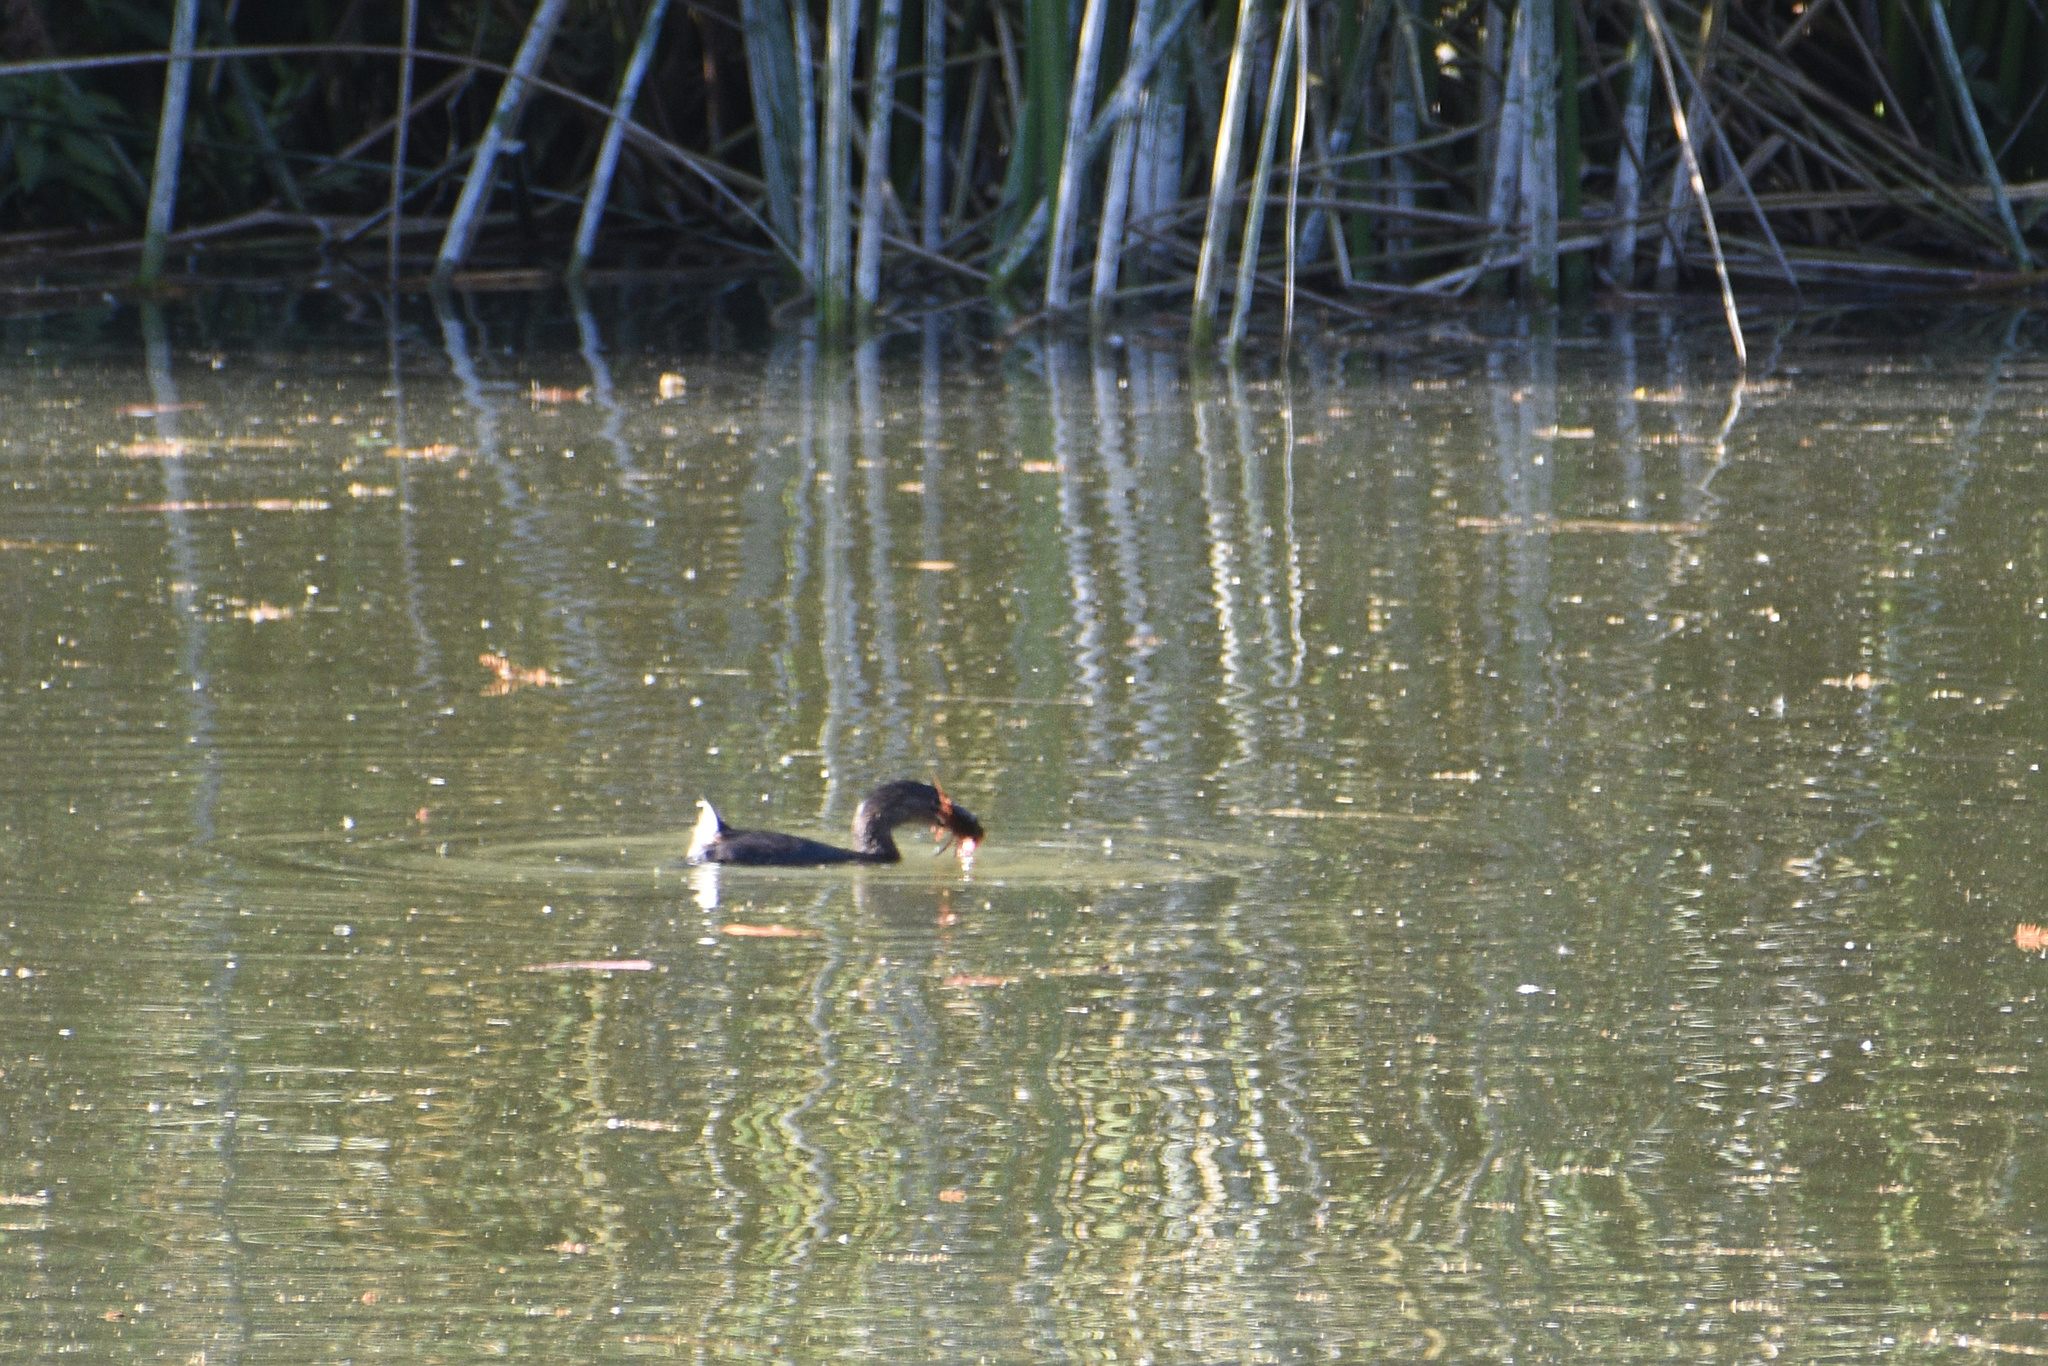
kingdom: Animalia
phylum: Chordata
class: Aves
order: Podicipediformes
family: Podicipedidae
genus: Podilymbus
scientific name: Podilymbus podiceps
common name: Pied-billed grebe
